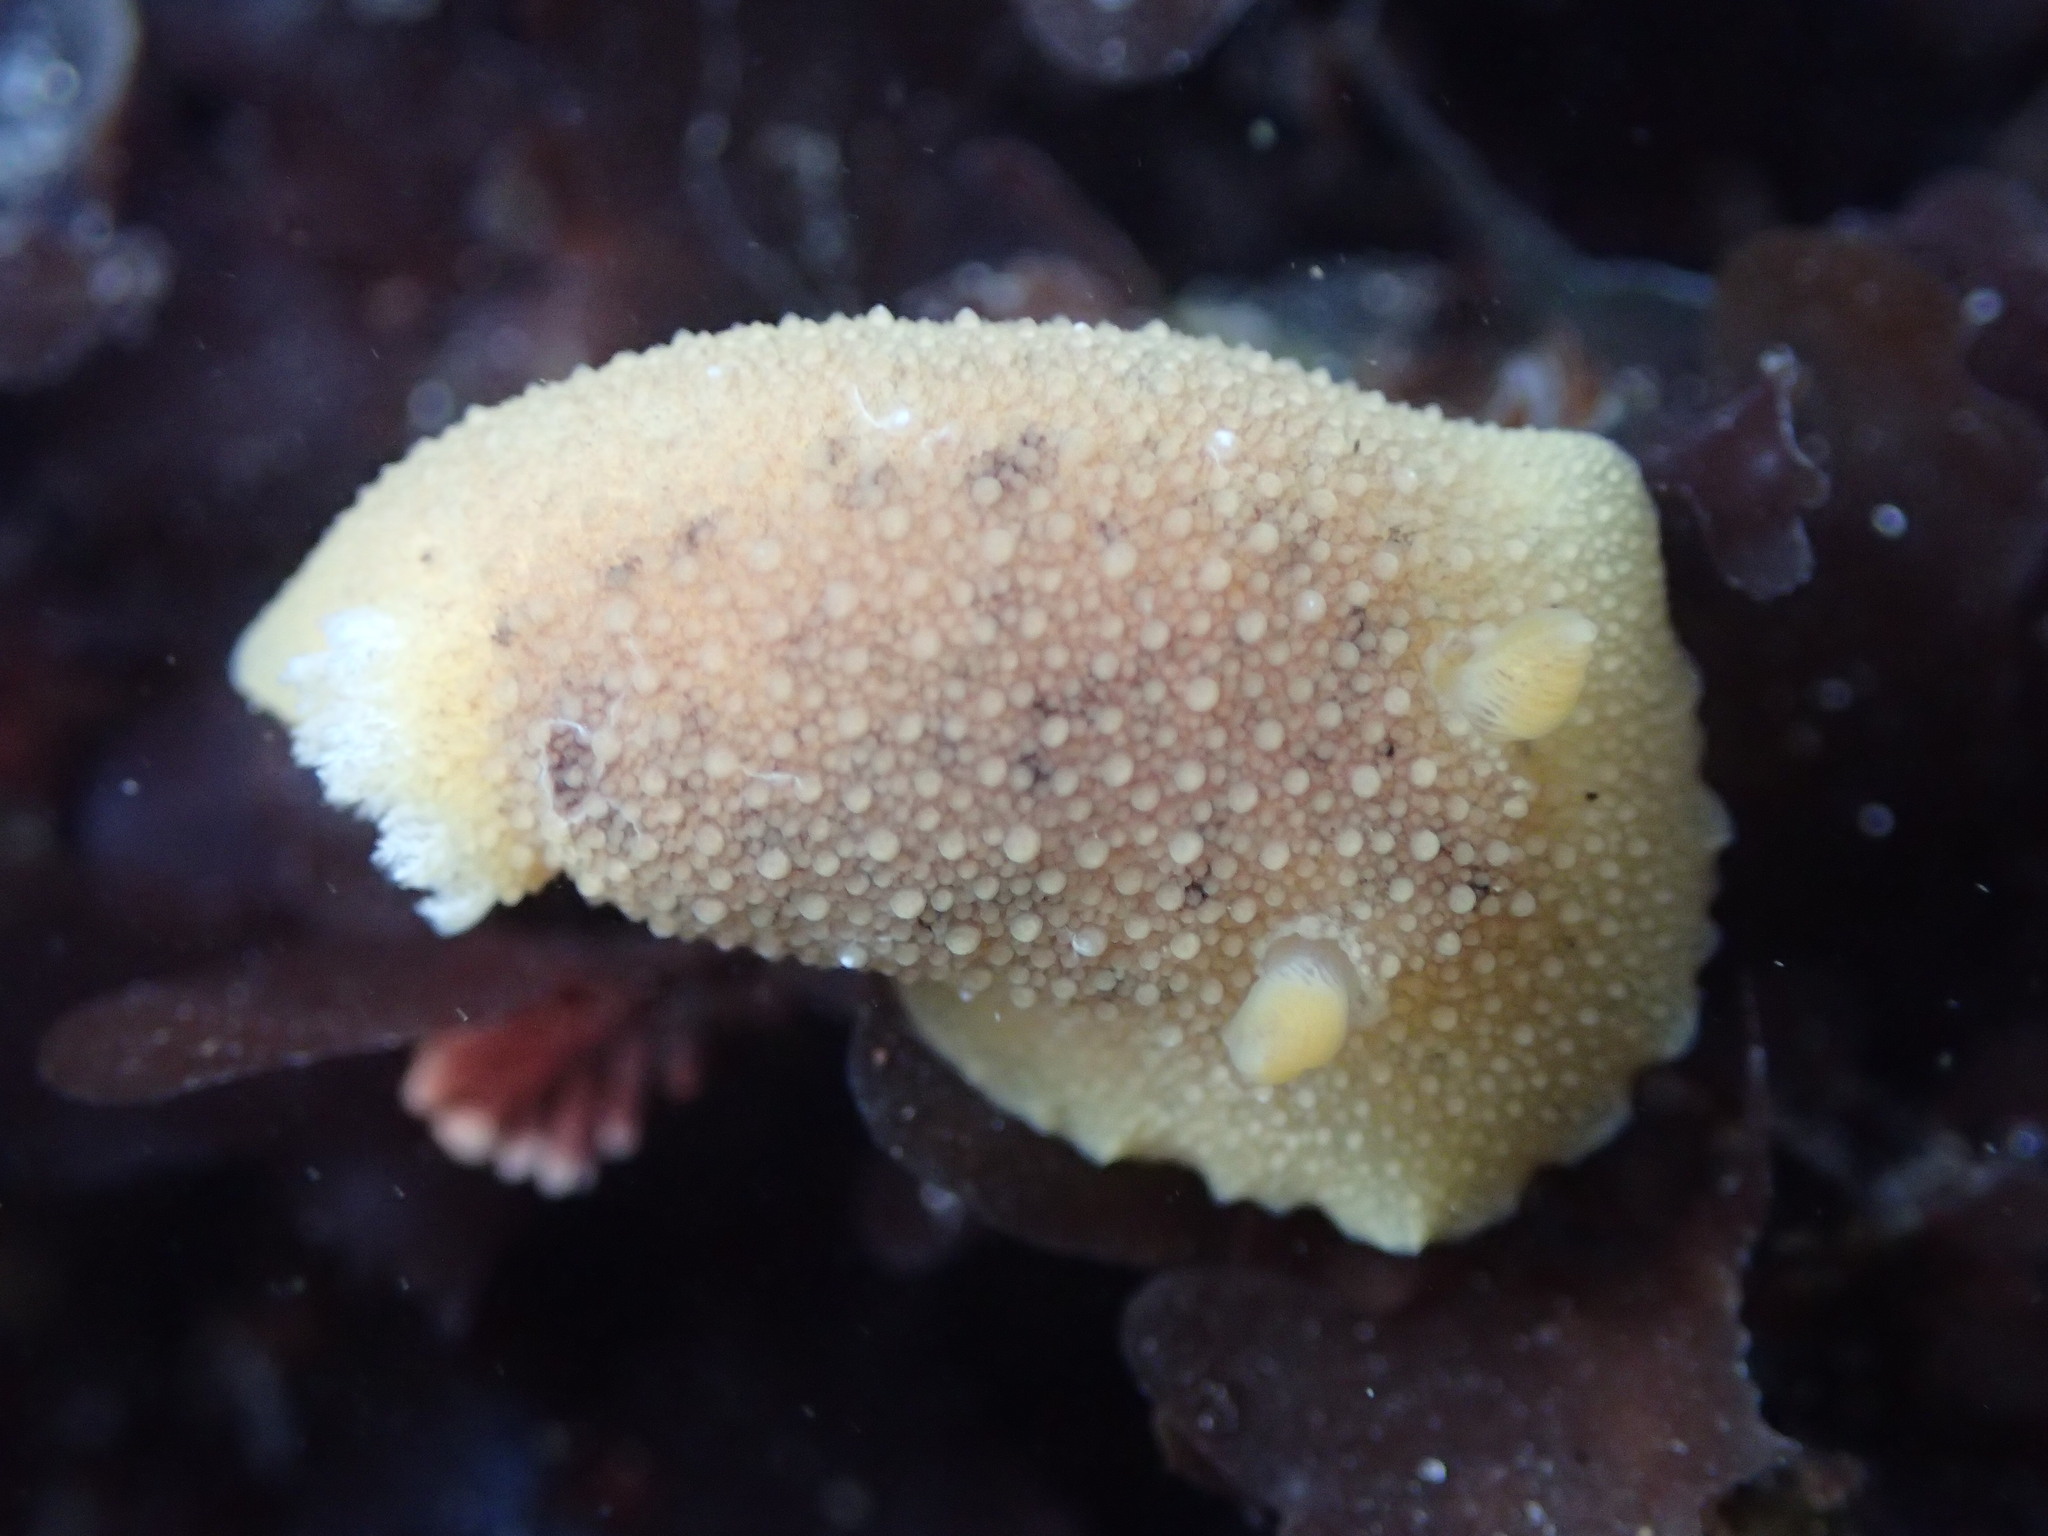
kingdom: Animalia
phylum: Mollusca
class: Gastropoda
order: Nudibranchia
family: Discodorididae
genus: Geitodoris
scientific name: Geitodoris heathi
